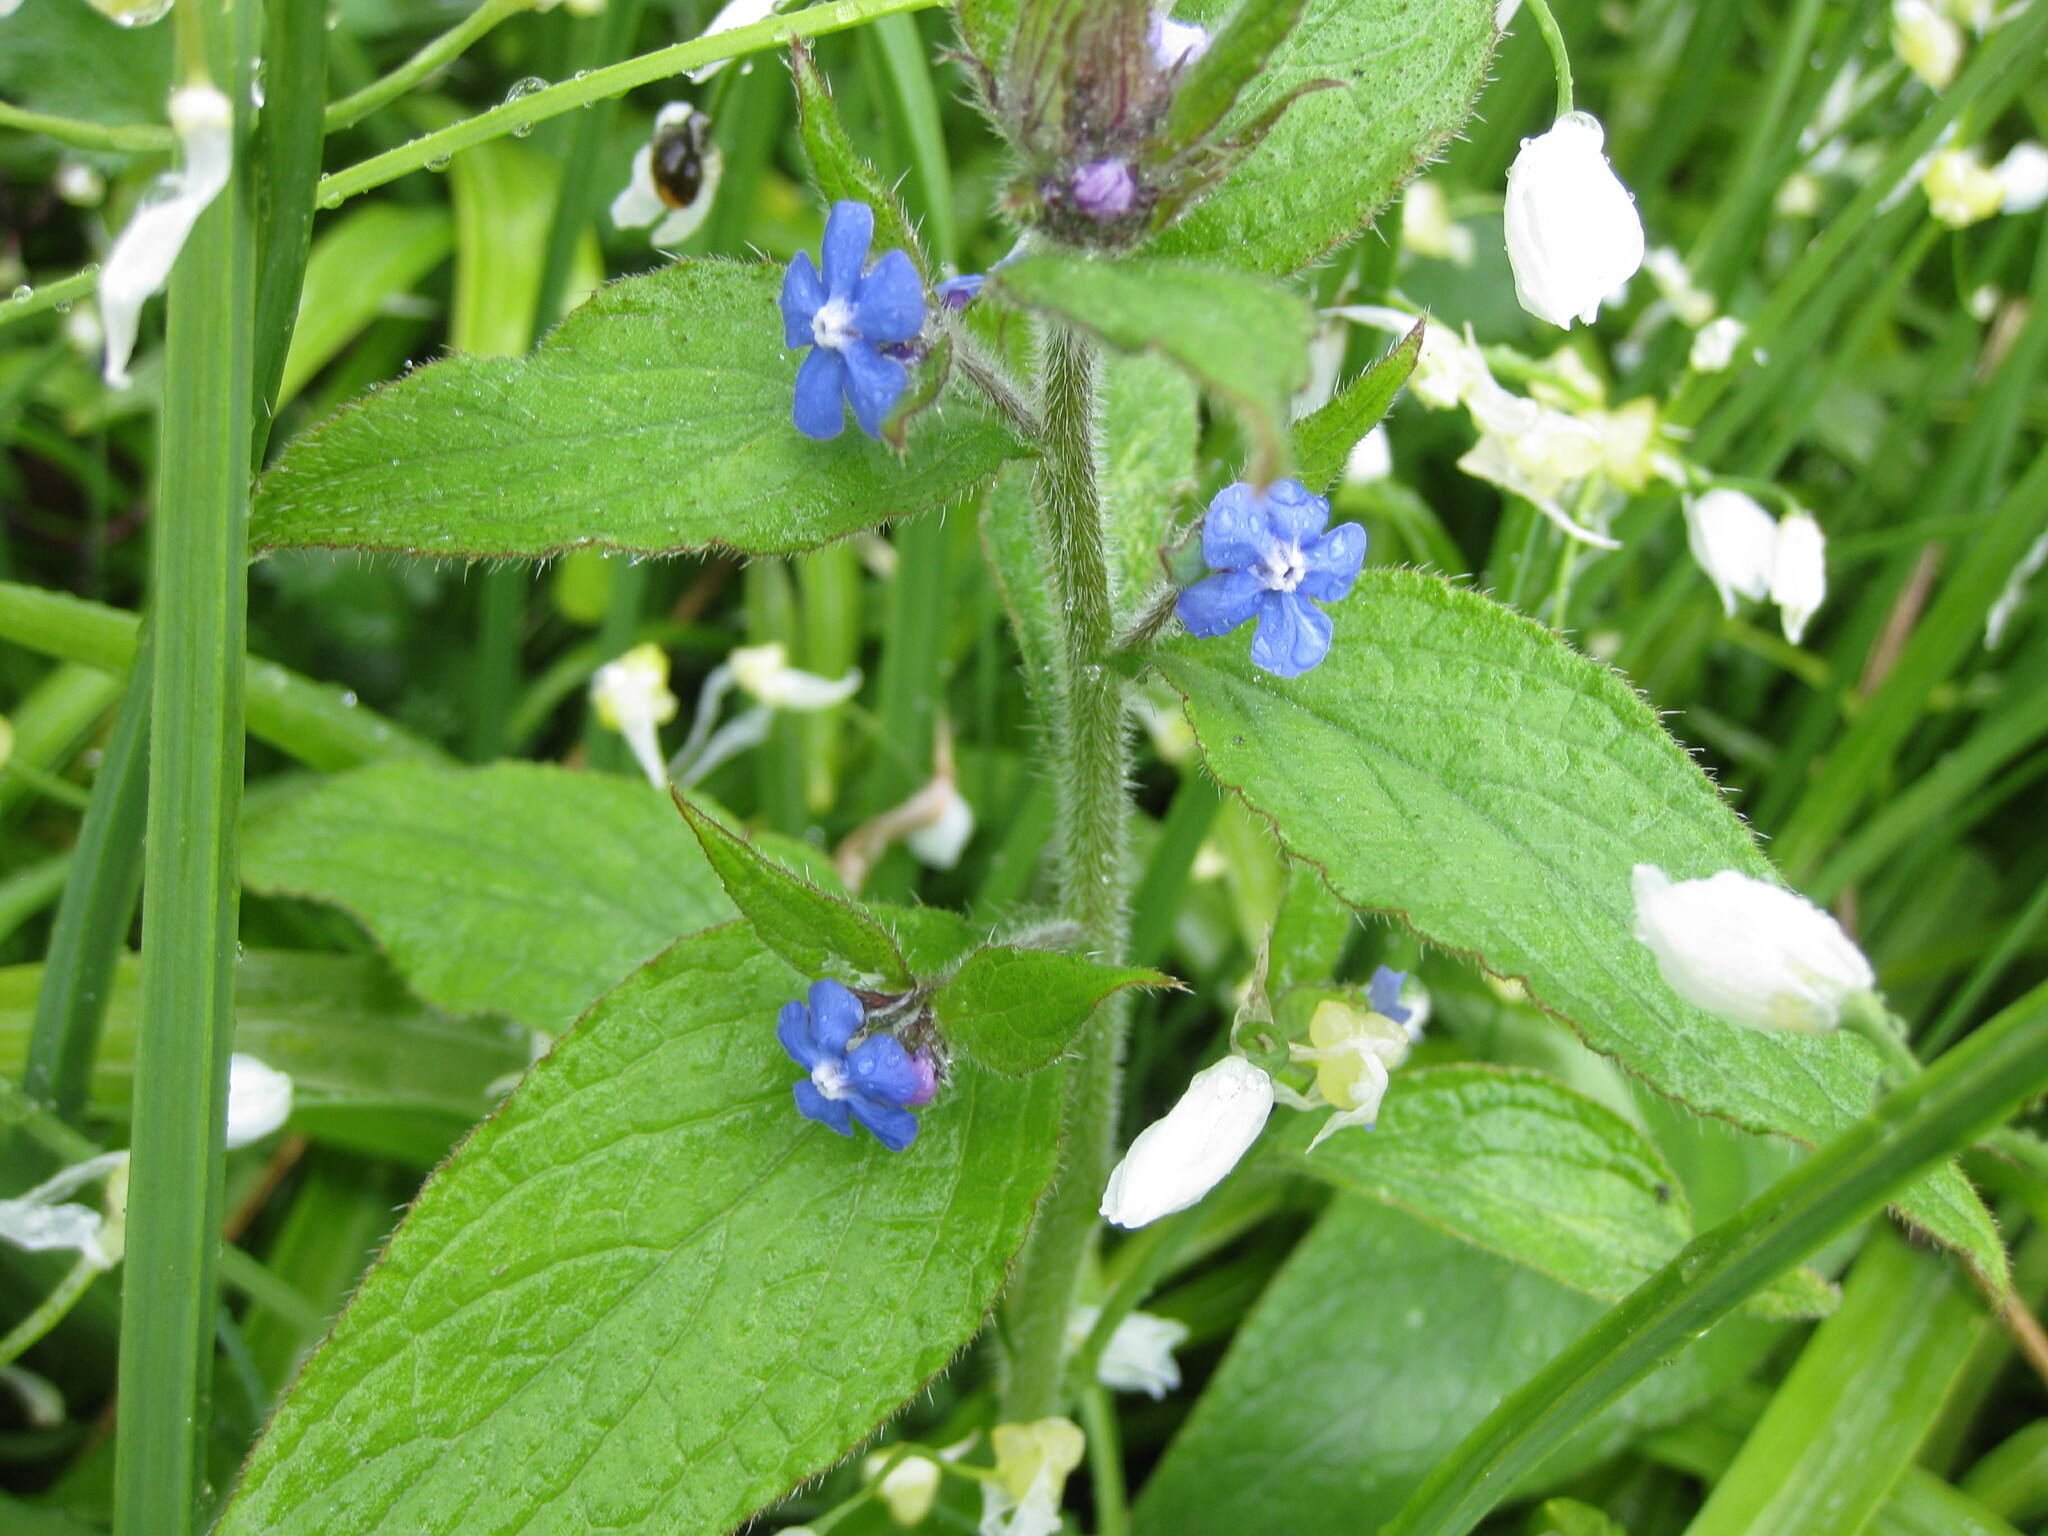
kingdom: Plantae
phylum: Tracheophyta
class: Magnoliopsida
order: Boraginales
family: Boraginaceae
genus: Pentaglottis
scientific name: Pentaglottis sempervirens
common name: Green alkanet
